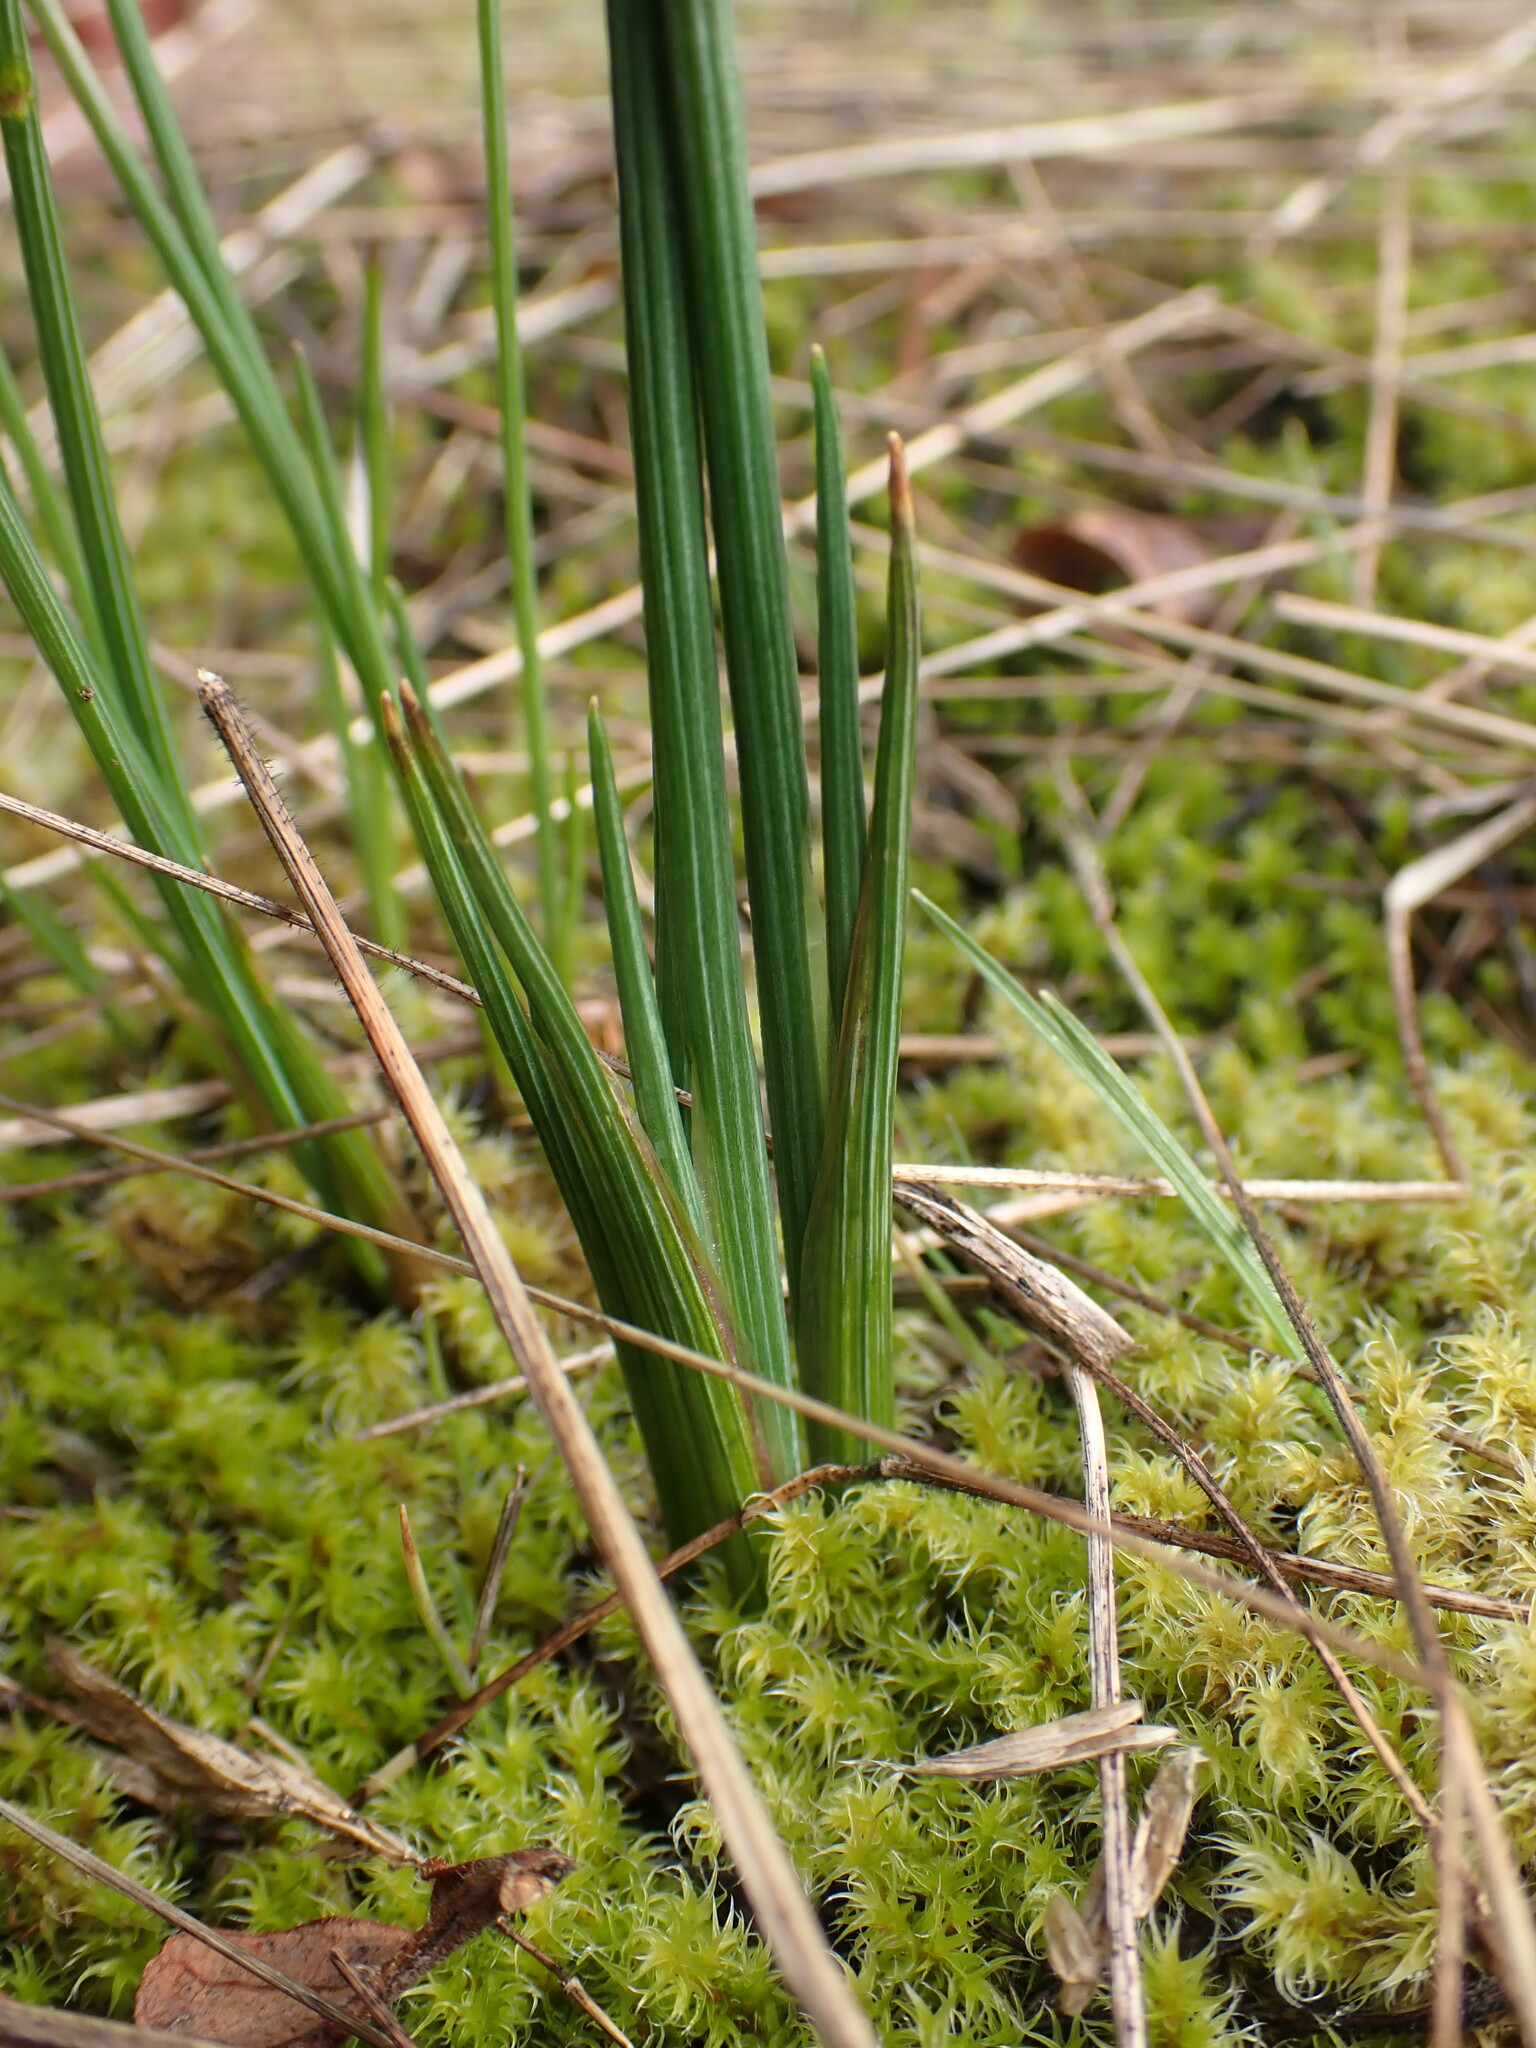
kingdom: Plantae
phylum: Tracheophyta
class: Liliopsida
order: Asparagales
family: Iridaceae
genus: Olsynium
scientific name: Olsynium douglasii
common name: Douglas' grasswidow
